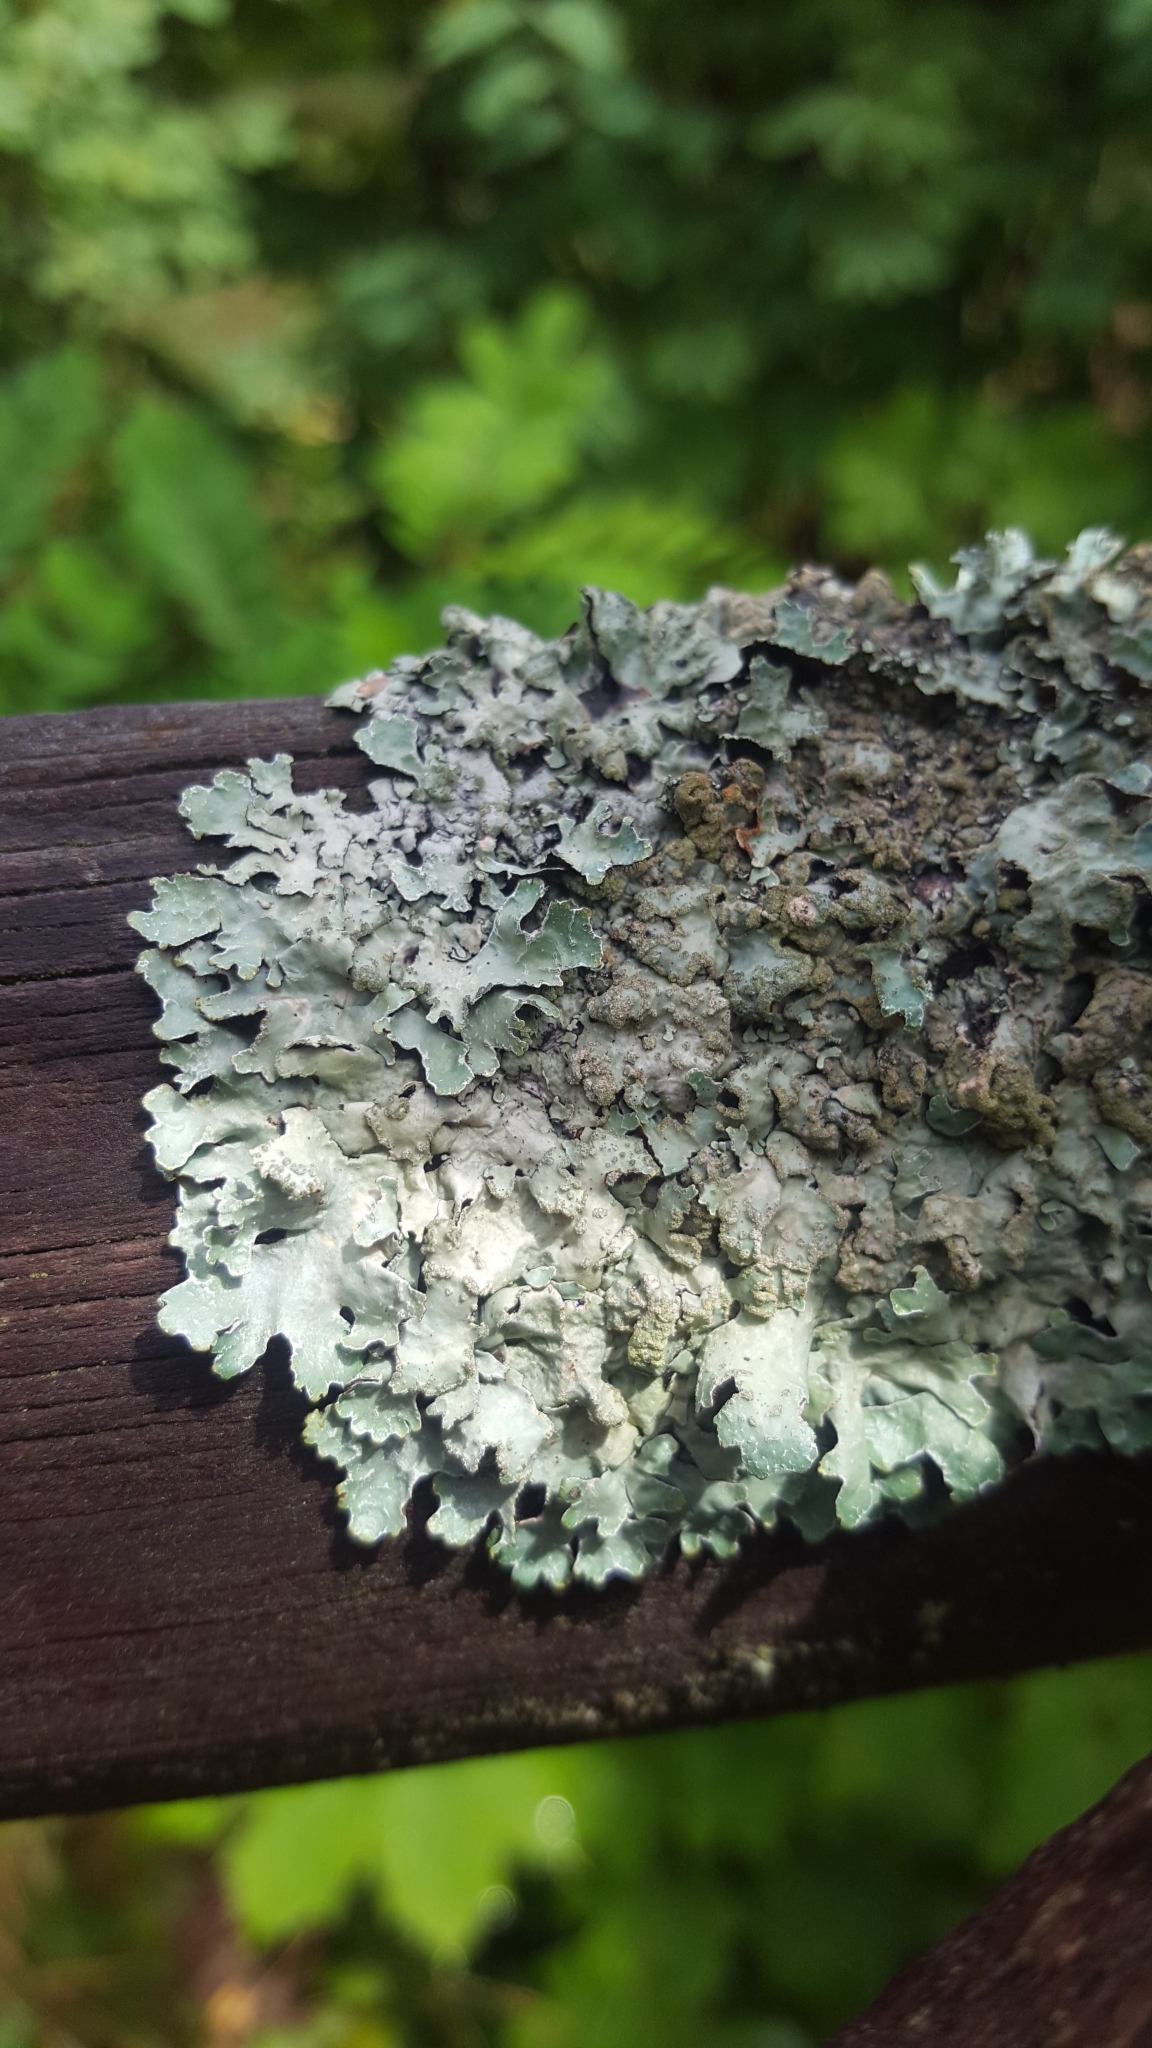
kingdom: Fungi
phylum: Ascomycota
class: Lecanoromycetes
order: Lecanorales
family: Parmeliaceae
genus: Parmelia
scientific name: Parmelia sulcata
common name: Netted shield lichen
